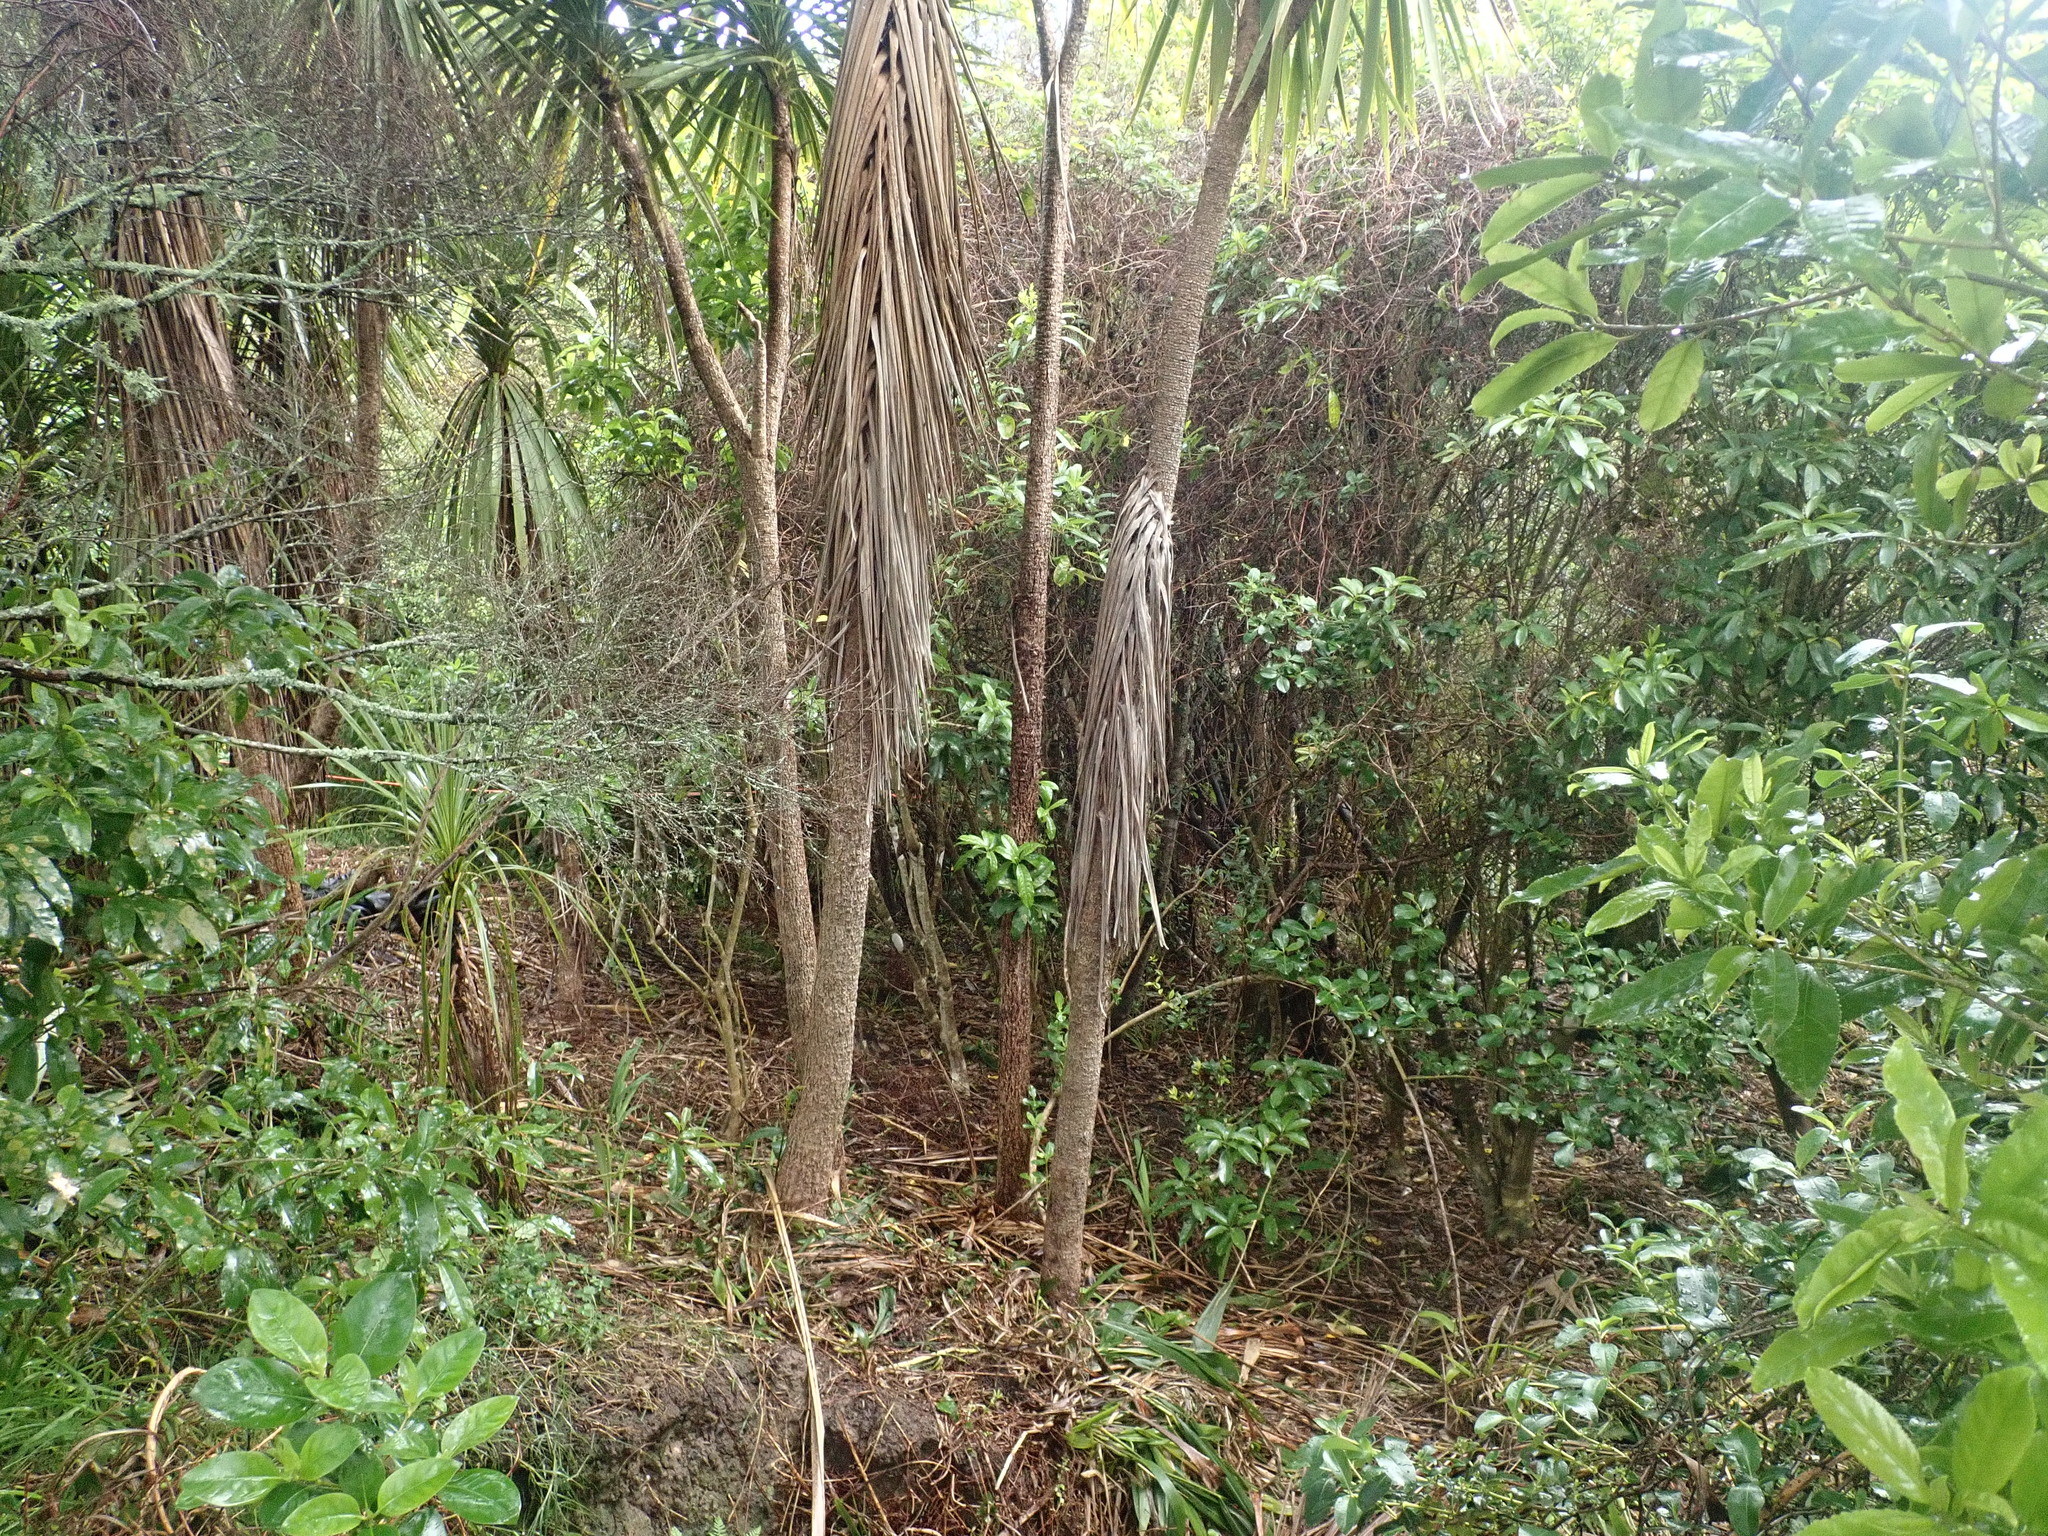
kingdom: Plantae
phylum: Tracheophyta
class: Liliopsida
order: Asparagales
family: Asparagaceae
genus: Cordyline
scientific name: Cordyline australis
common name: Cabbage-palm
